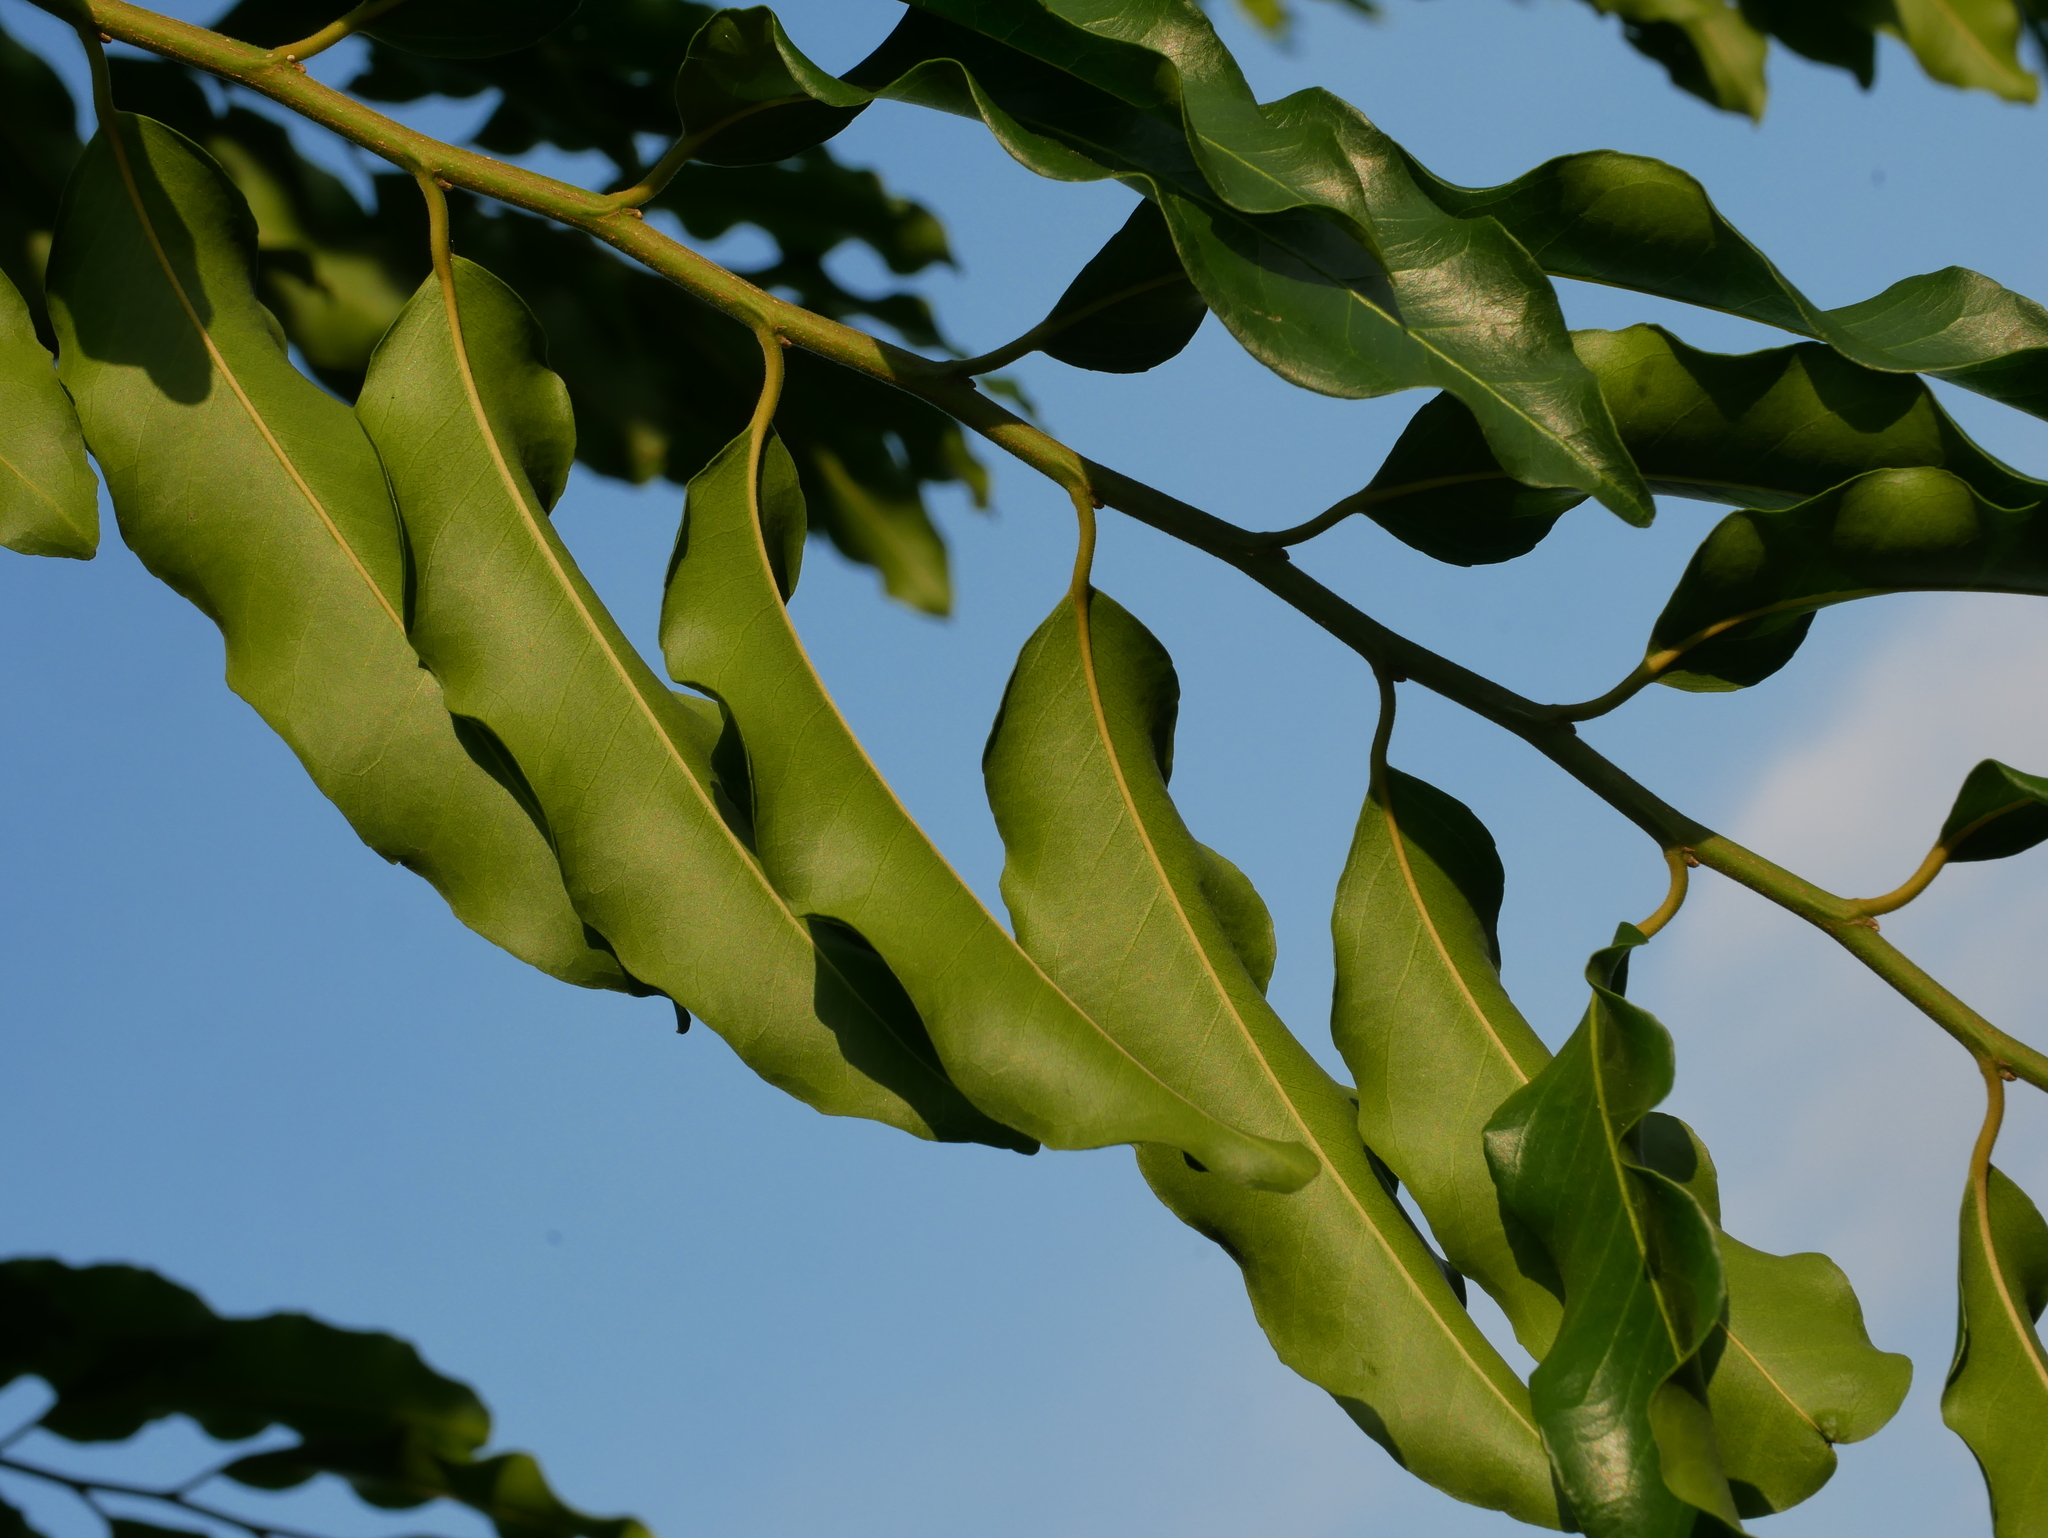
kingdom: Plantae
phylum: Tracheophyta
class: Magnoliopsida
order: Malpighiales
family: Putranjivaceae
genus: Putranjiva
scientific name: Putranjiva roxburghii
